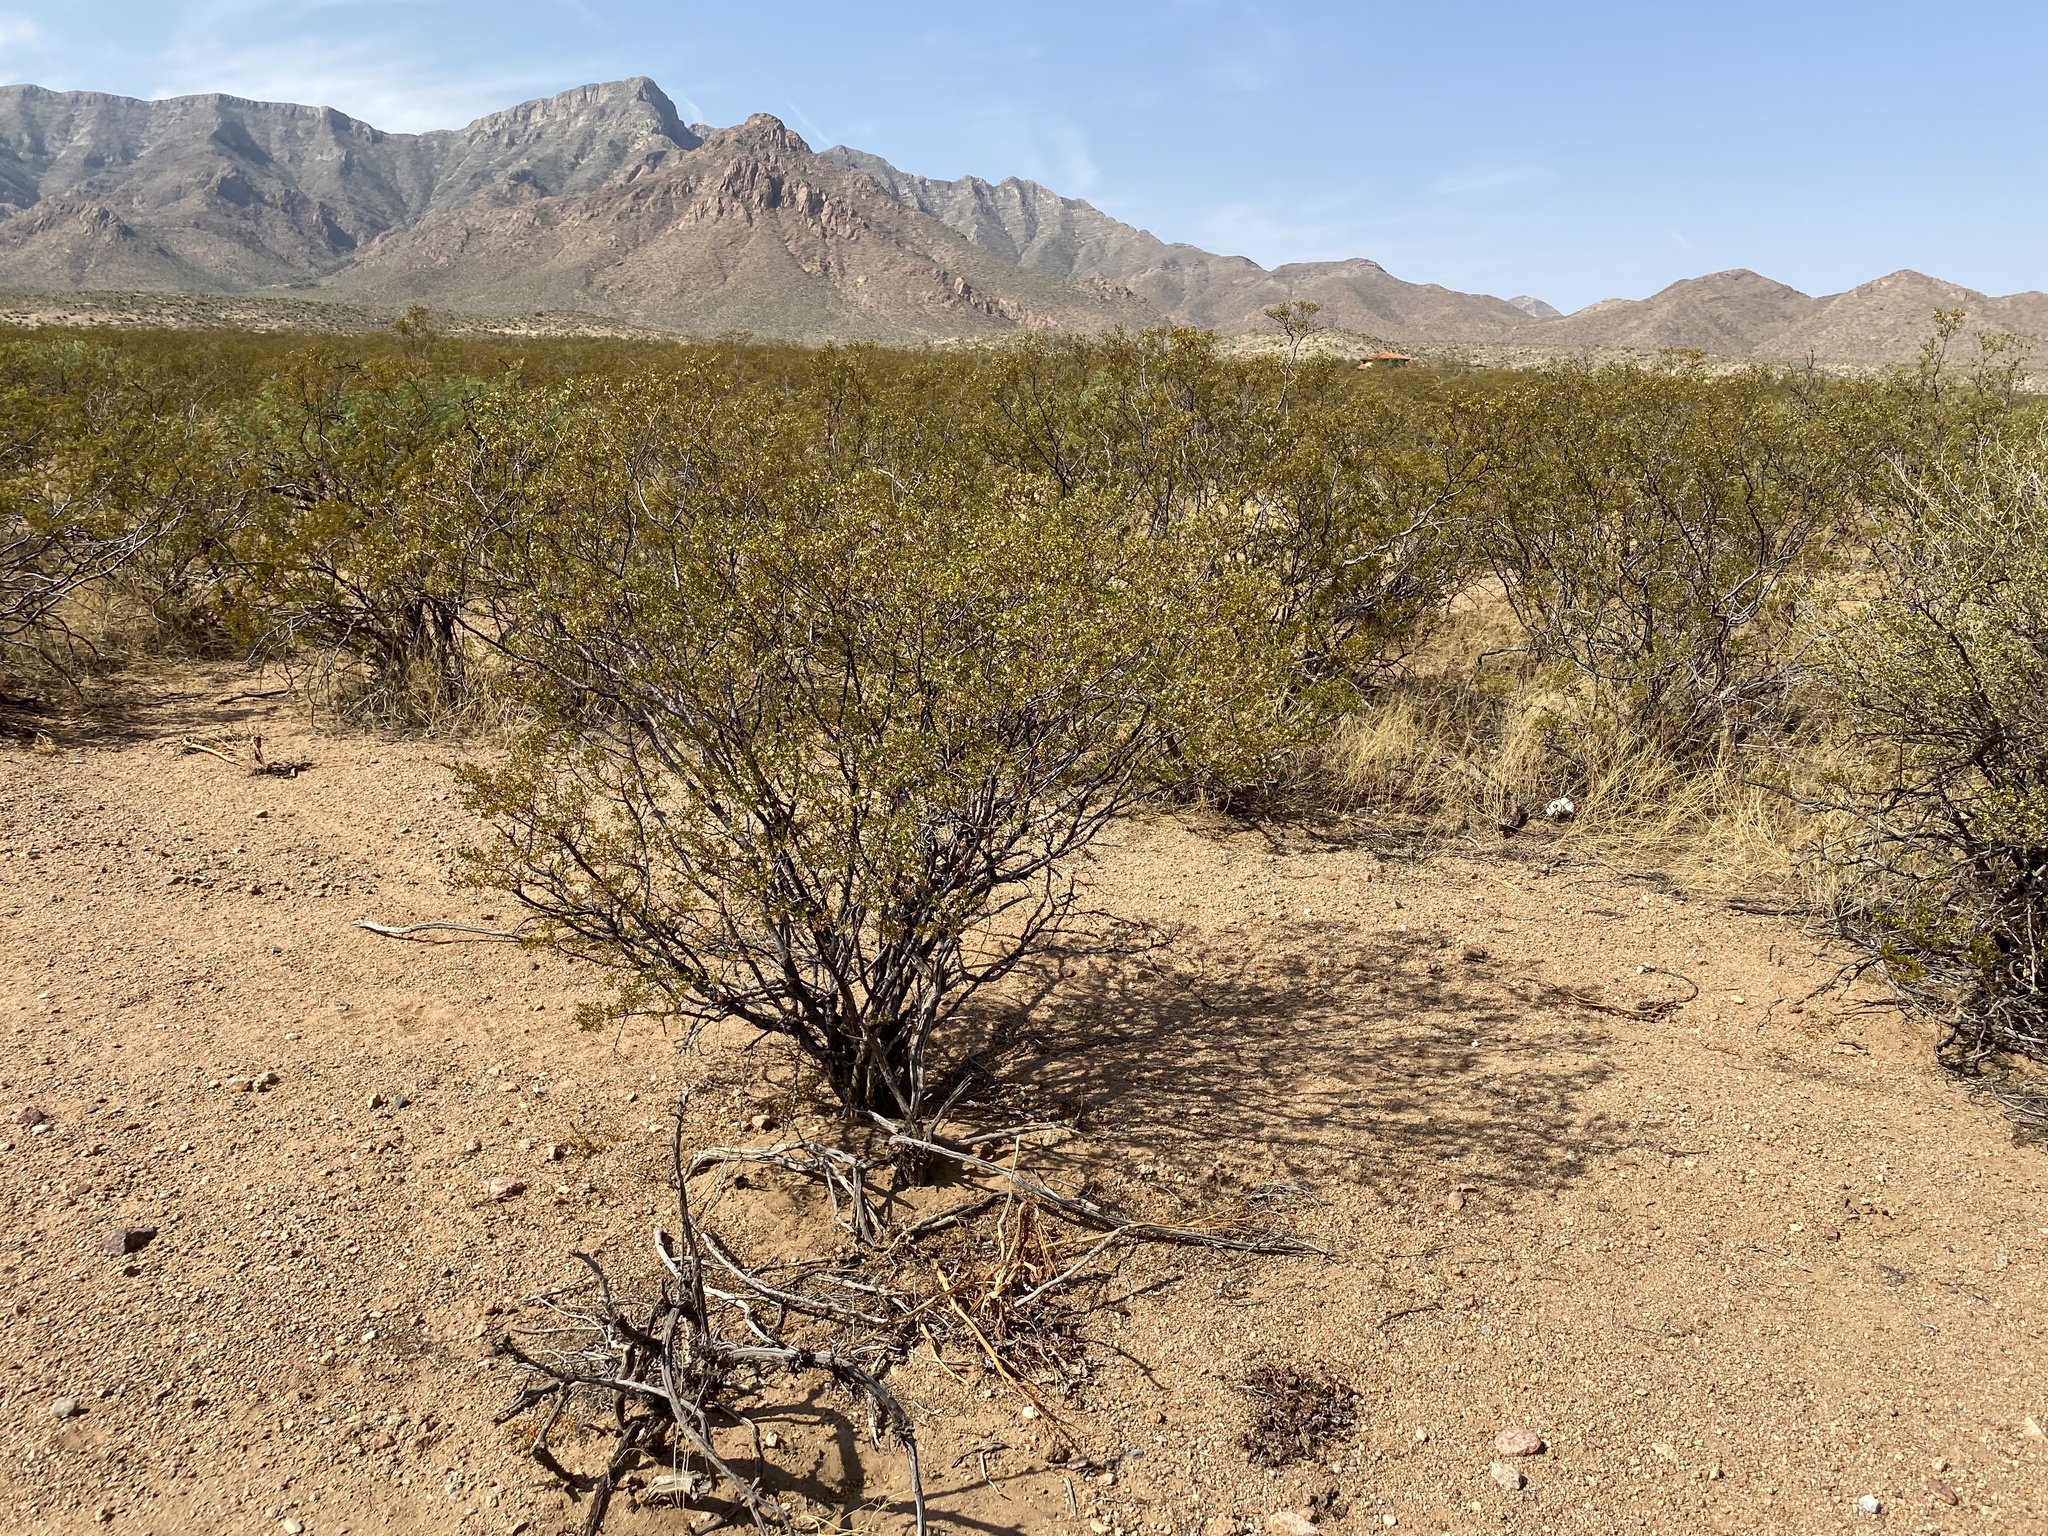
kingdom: Plantae
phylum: Tracheophyta
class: Magnoliopsida
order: Zygophyllales
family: Zygophyllaceae
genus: Larrea
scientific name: Larrea tridentata
